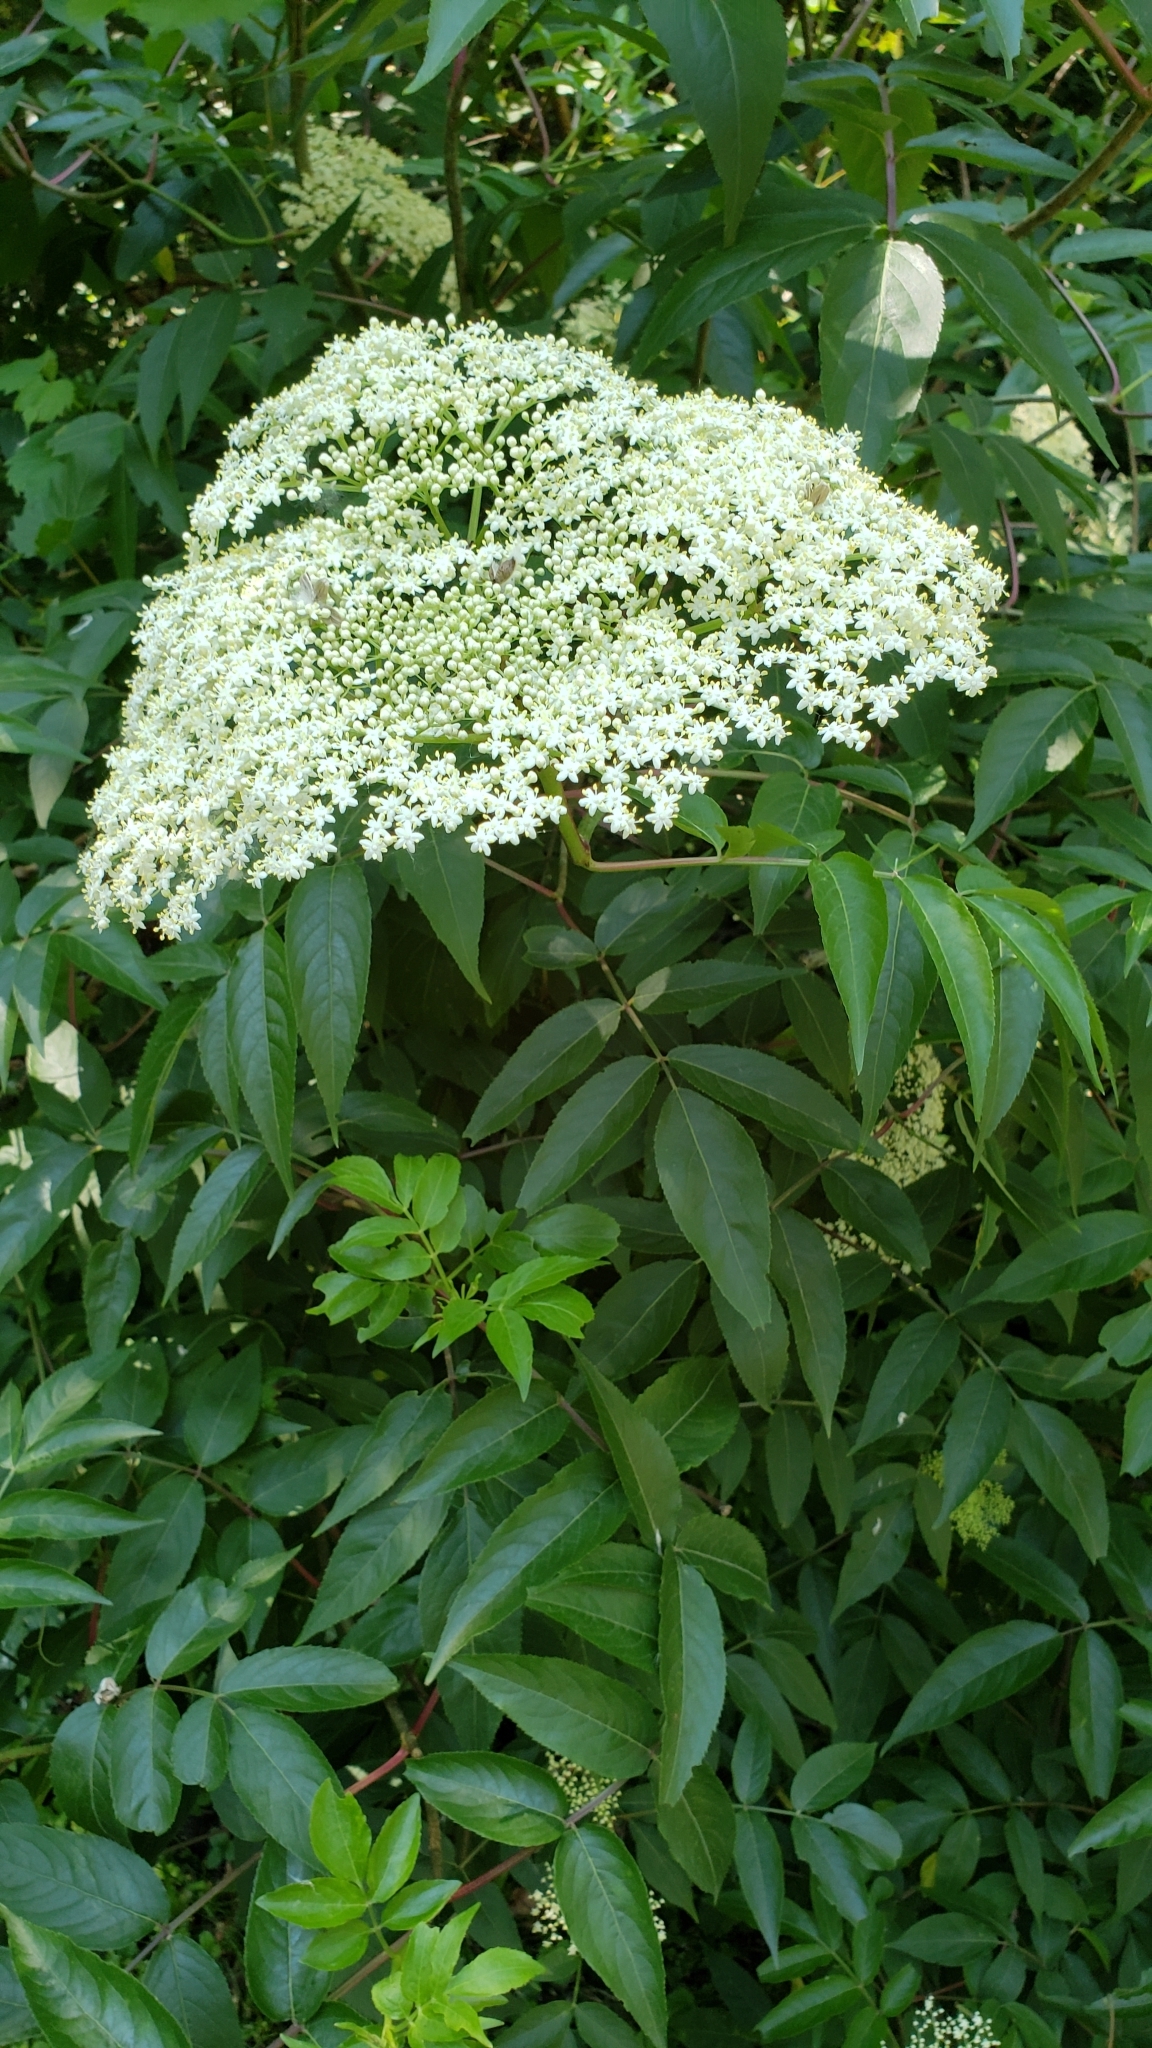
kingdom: Plantae
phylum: Tracheophyta
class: Magnoliopsida
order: Dipsacales
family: Viburnaceae
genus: Sambucus
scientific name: Sambucus canadensis
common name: American elder
